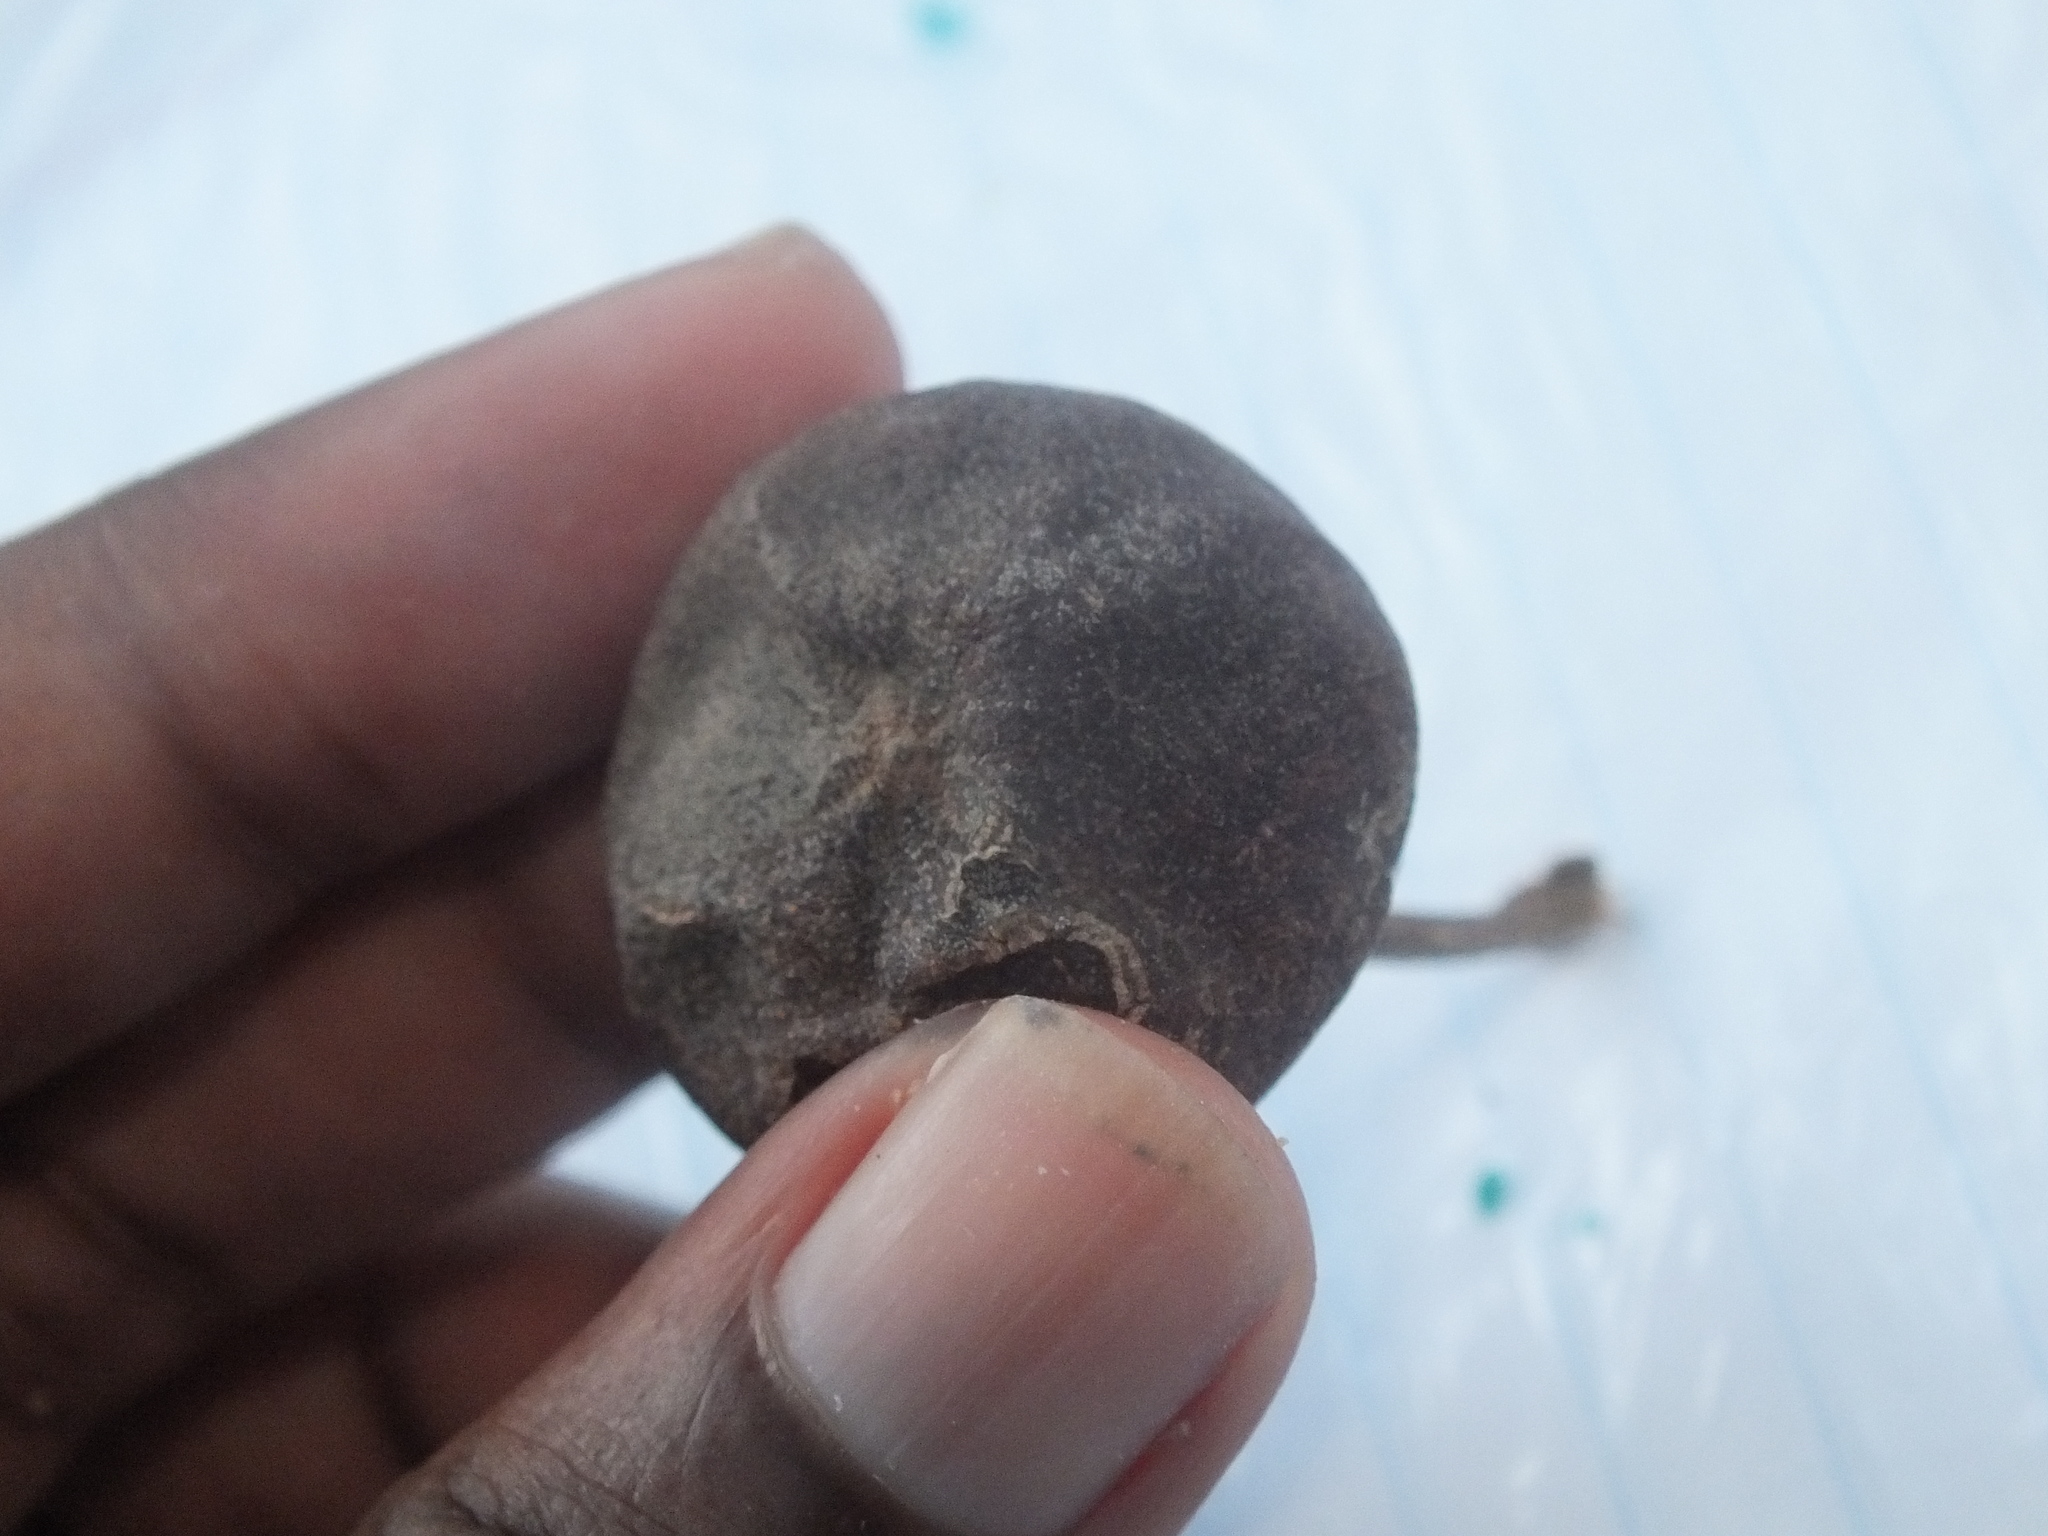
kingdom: Plantae
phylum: Tracheophyta
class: Magnoliopsida
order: Malvales
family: Malvaceae
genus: Thespesia
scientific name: Thespesia populnea
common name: Seaside mahoe
